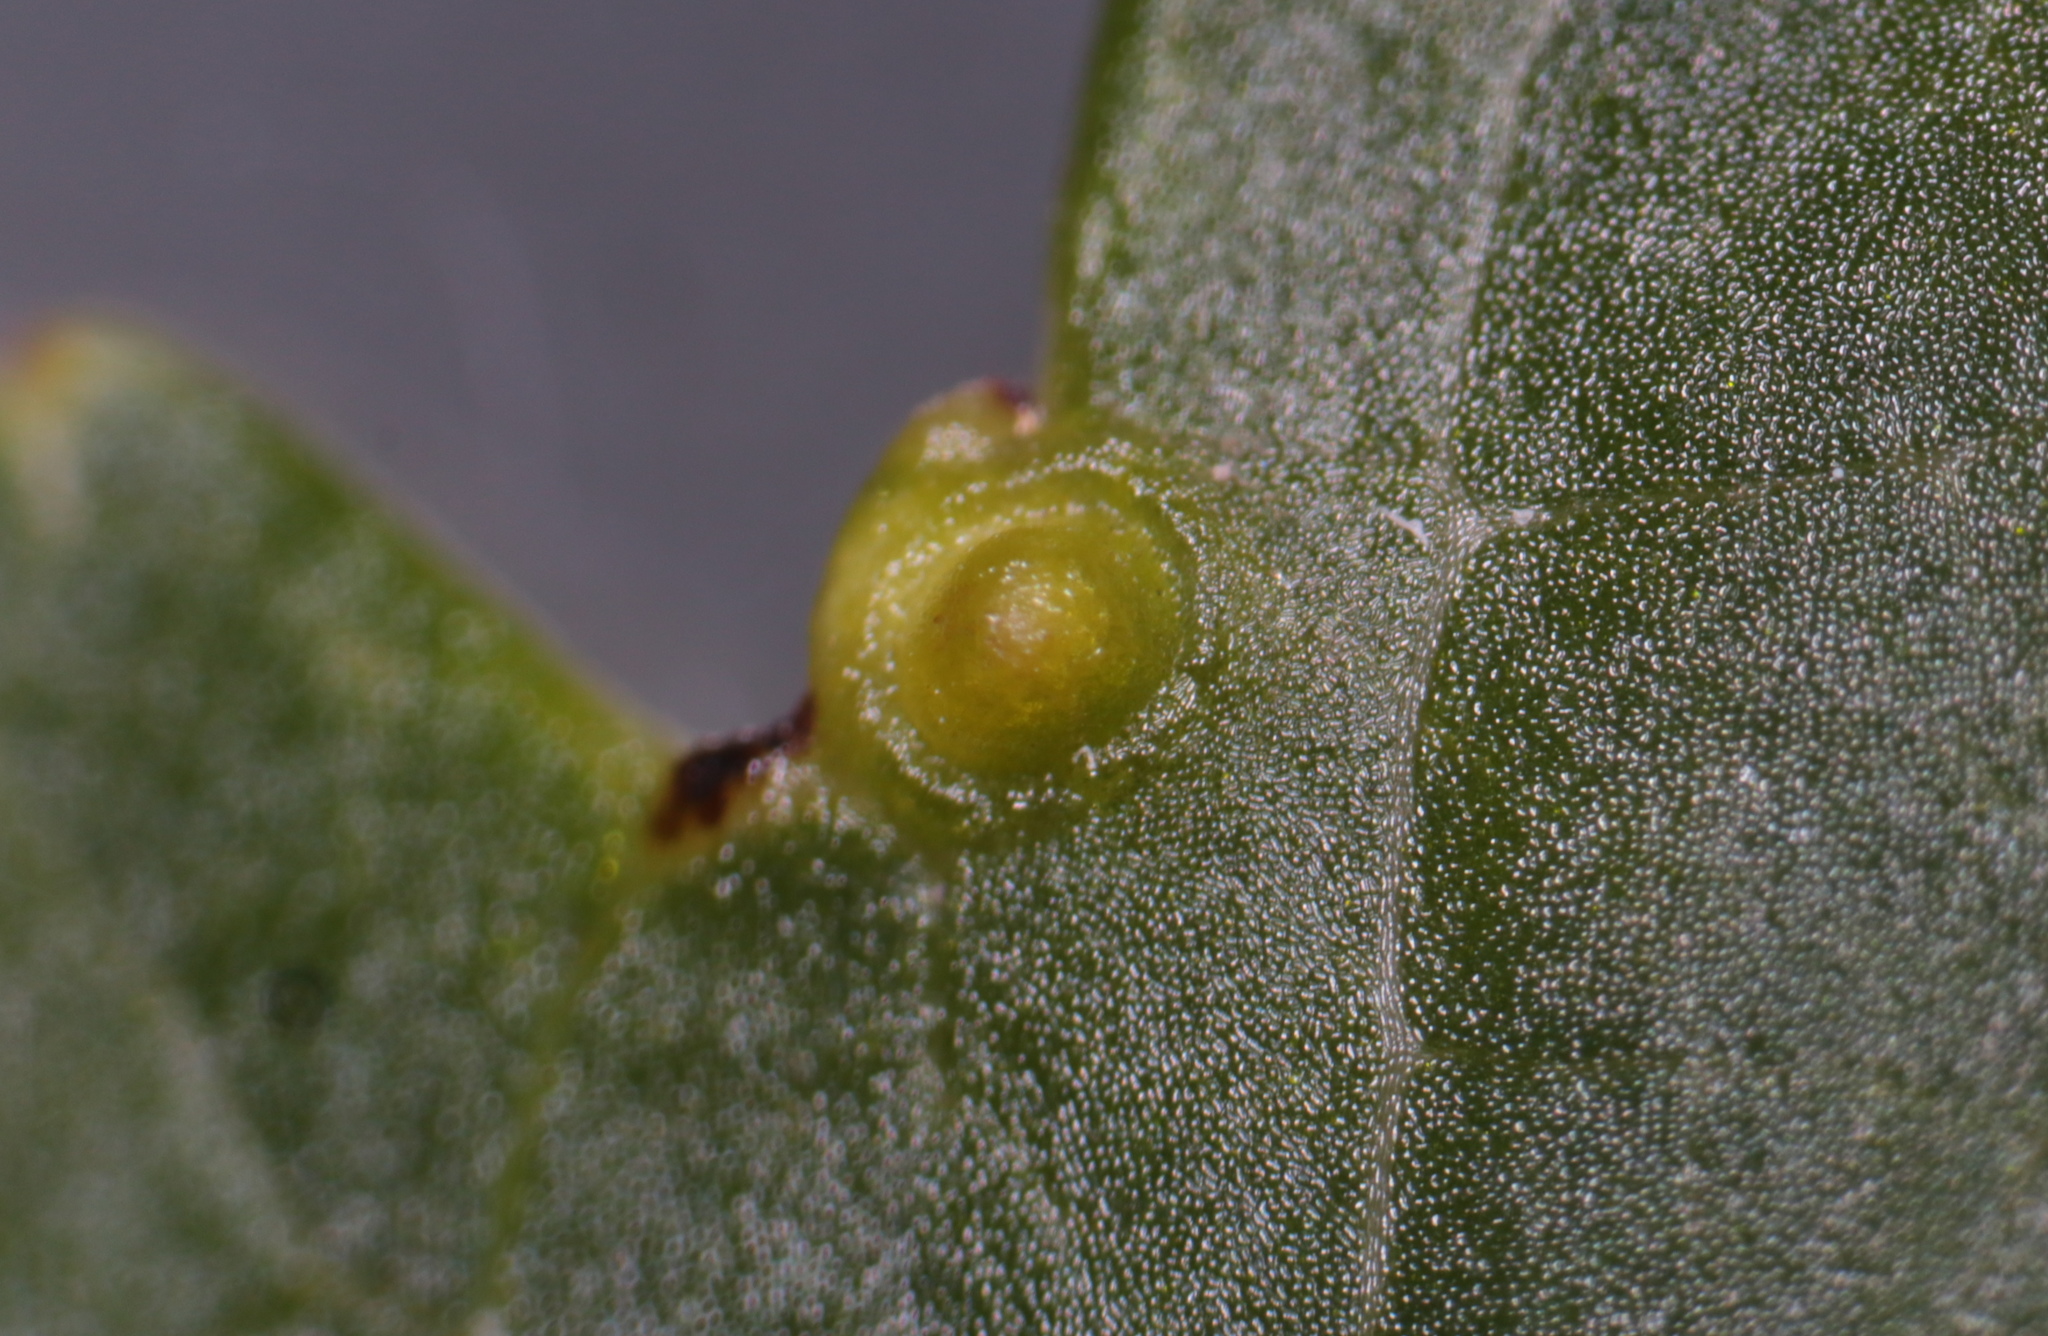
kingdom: Animalia
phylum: Arthropoda
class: Insecta
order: Hemiptera
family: Diaspididae
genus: Diaspidiotus
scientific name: Diaspidiotus liquidambaris
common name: Sweet gum scale
